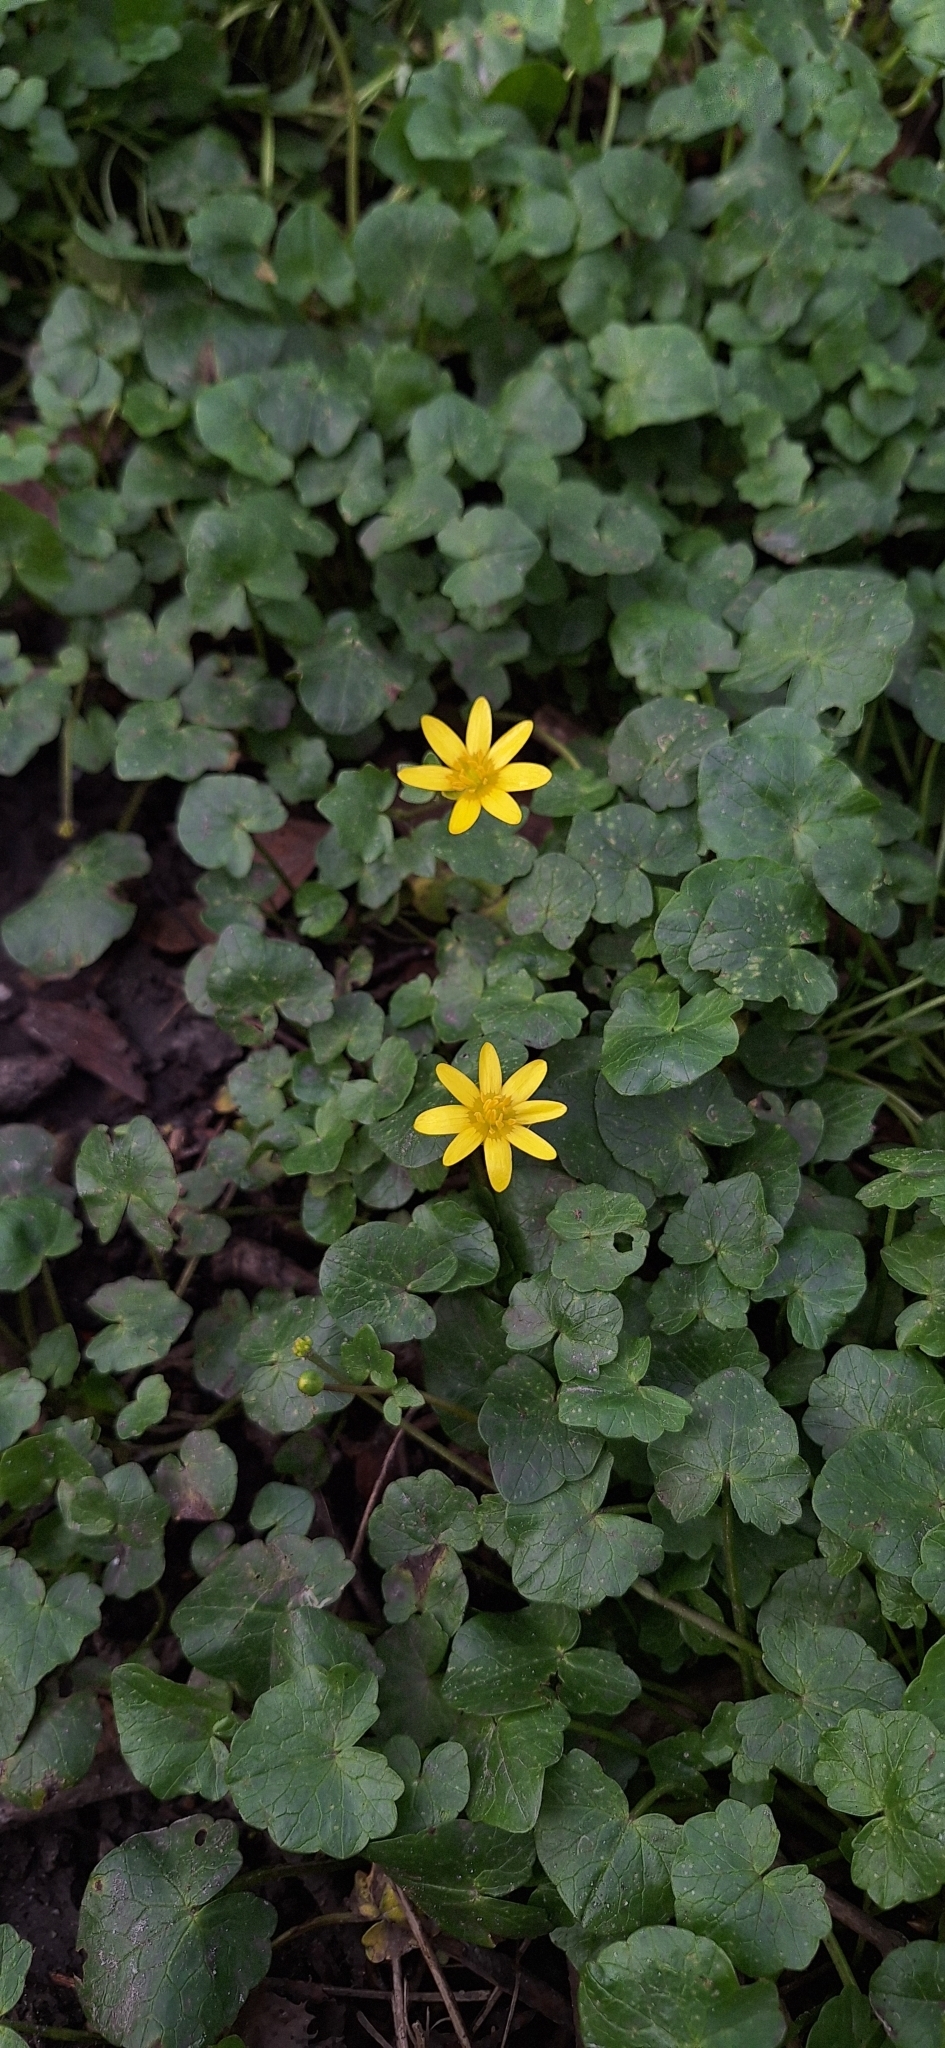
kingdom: Plantae
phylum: Tracheophyta
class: Magnoliopsida
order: Ranunculales
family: Ranunculaceae
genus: Ficaria
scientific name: Ficaria verna
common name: Lesser celandine
